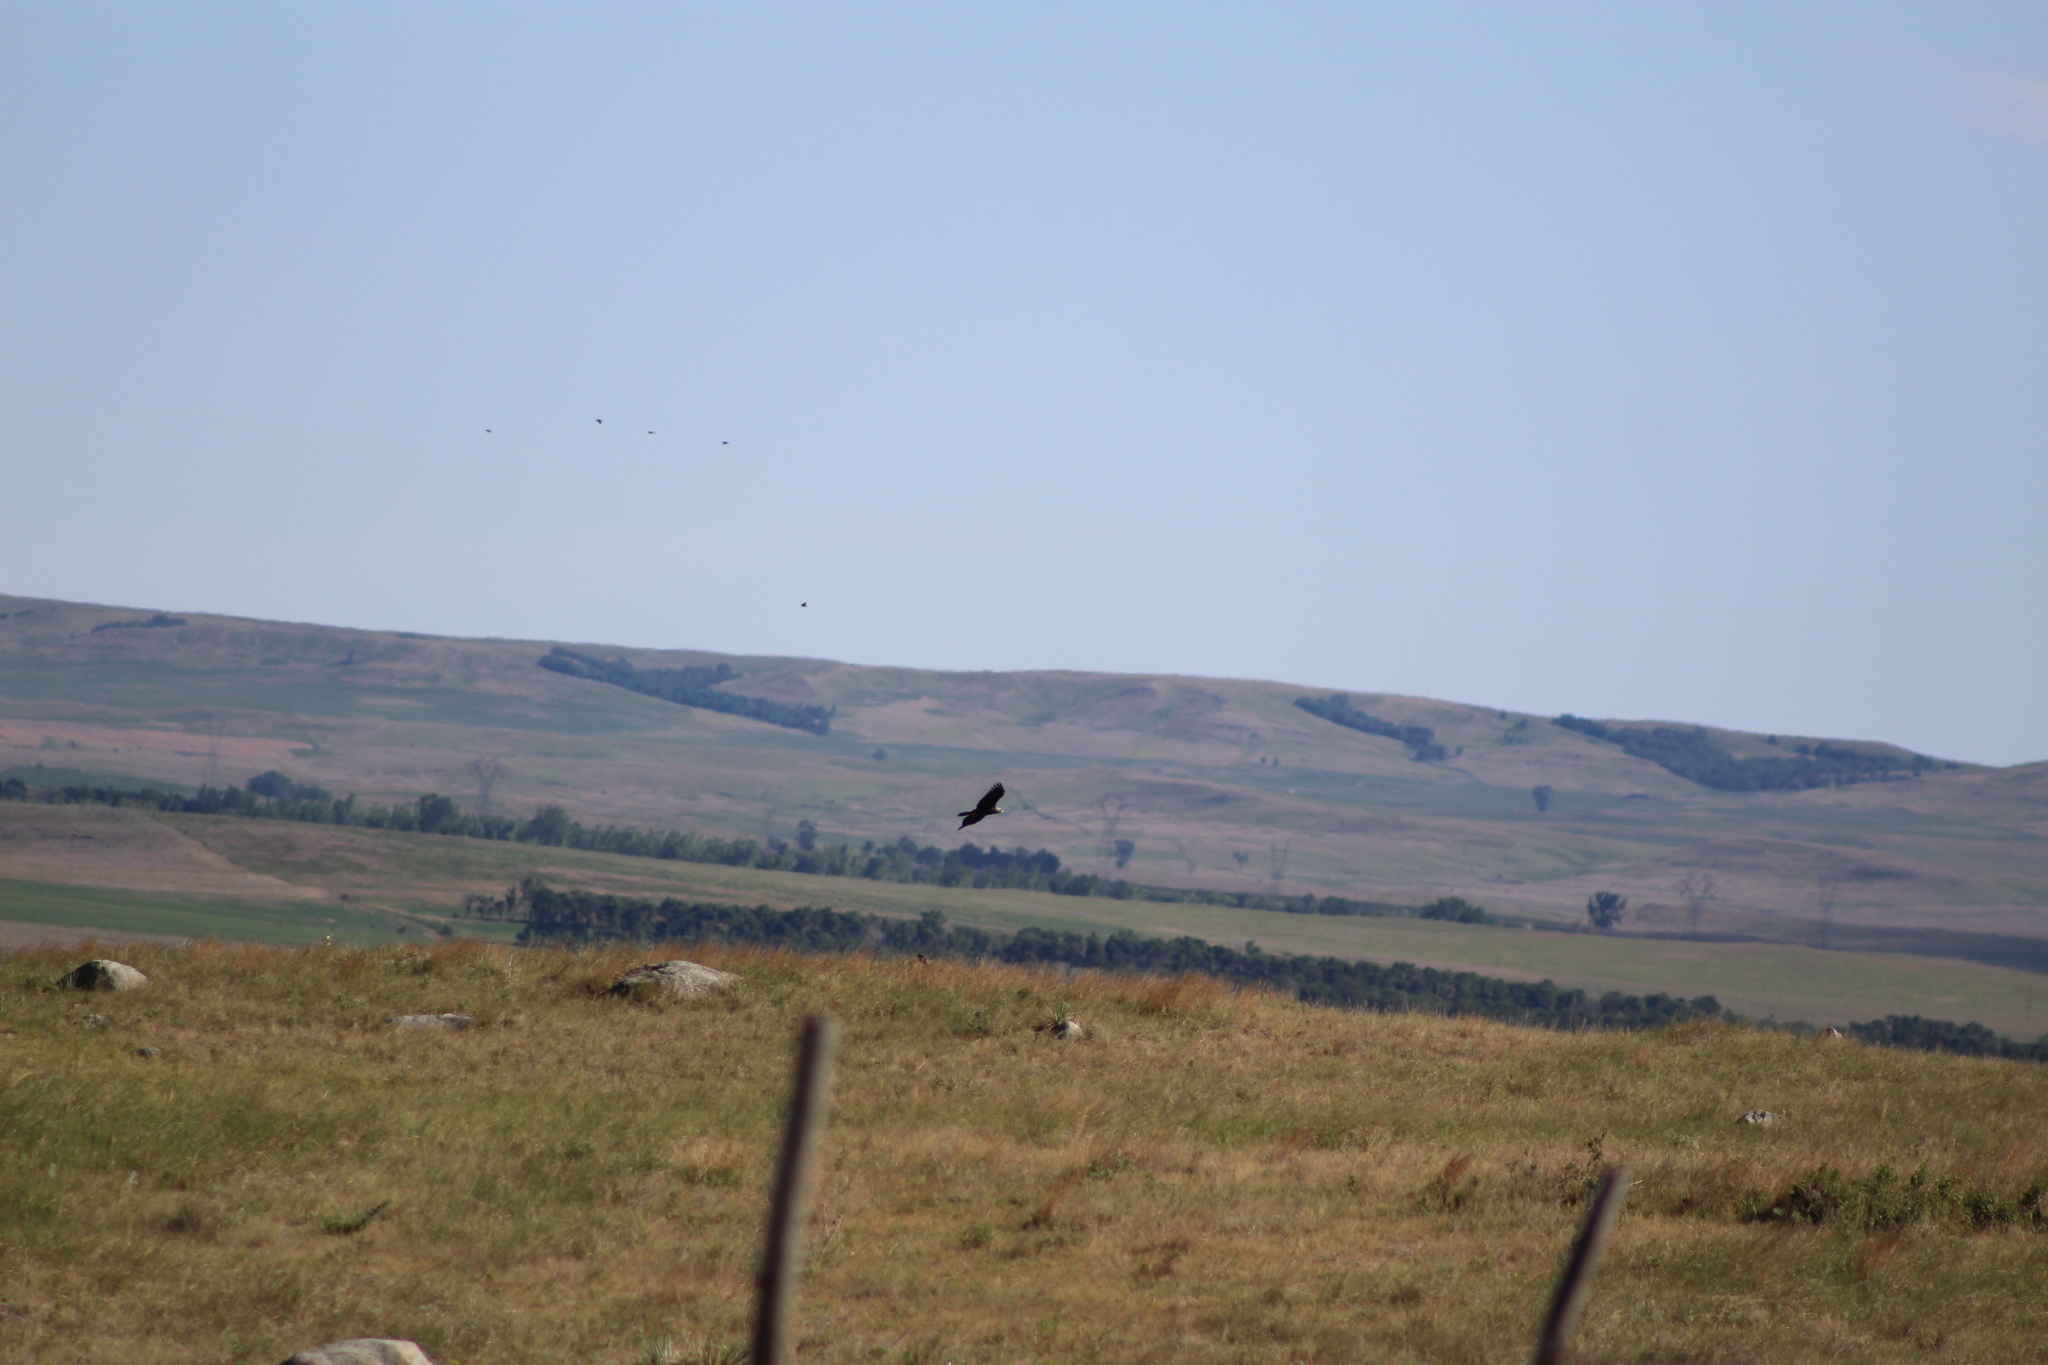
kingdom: Animalia
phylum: Chordata
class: Aves
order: Accipitriformes
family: Accipitridae
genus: Aquila
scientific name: Aquila chrysaetos
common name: Golden eagle
